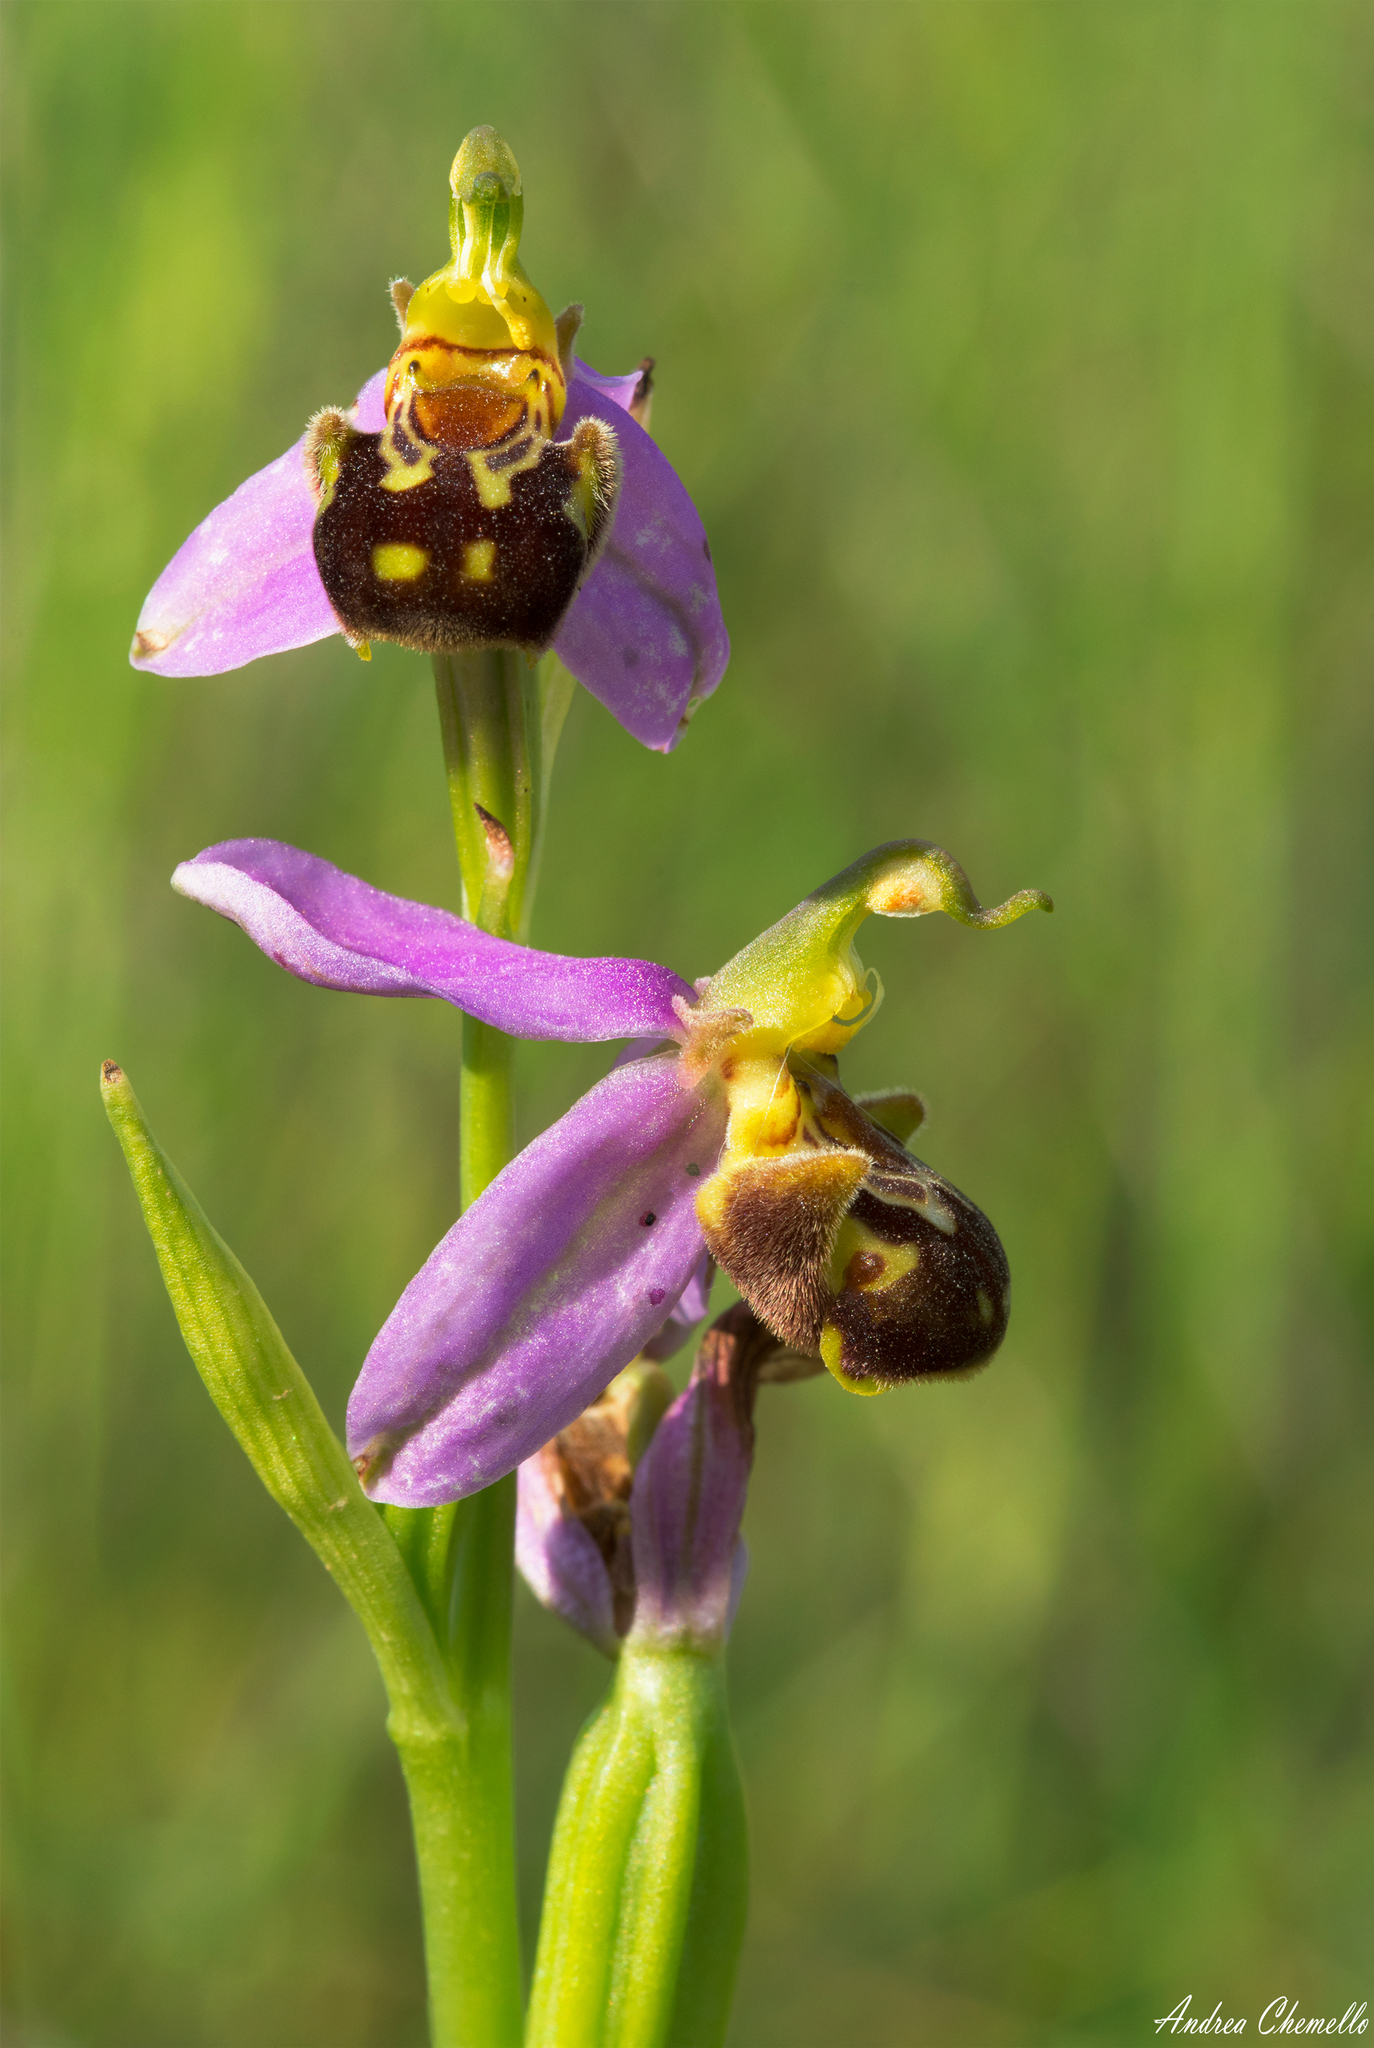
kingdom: Plantae
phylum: Tracheophyta
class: Liliopsida
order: Asparagales
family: Orchidaceae
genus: Ophrys
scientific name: Ophrys apifera
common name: Bee orchid
